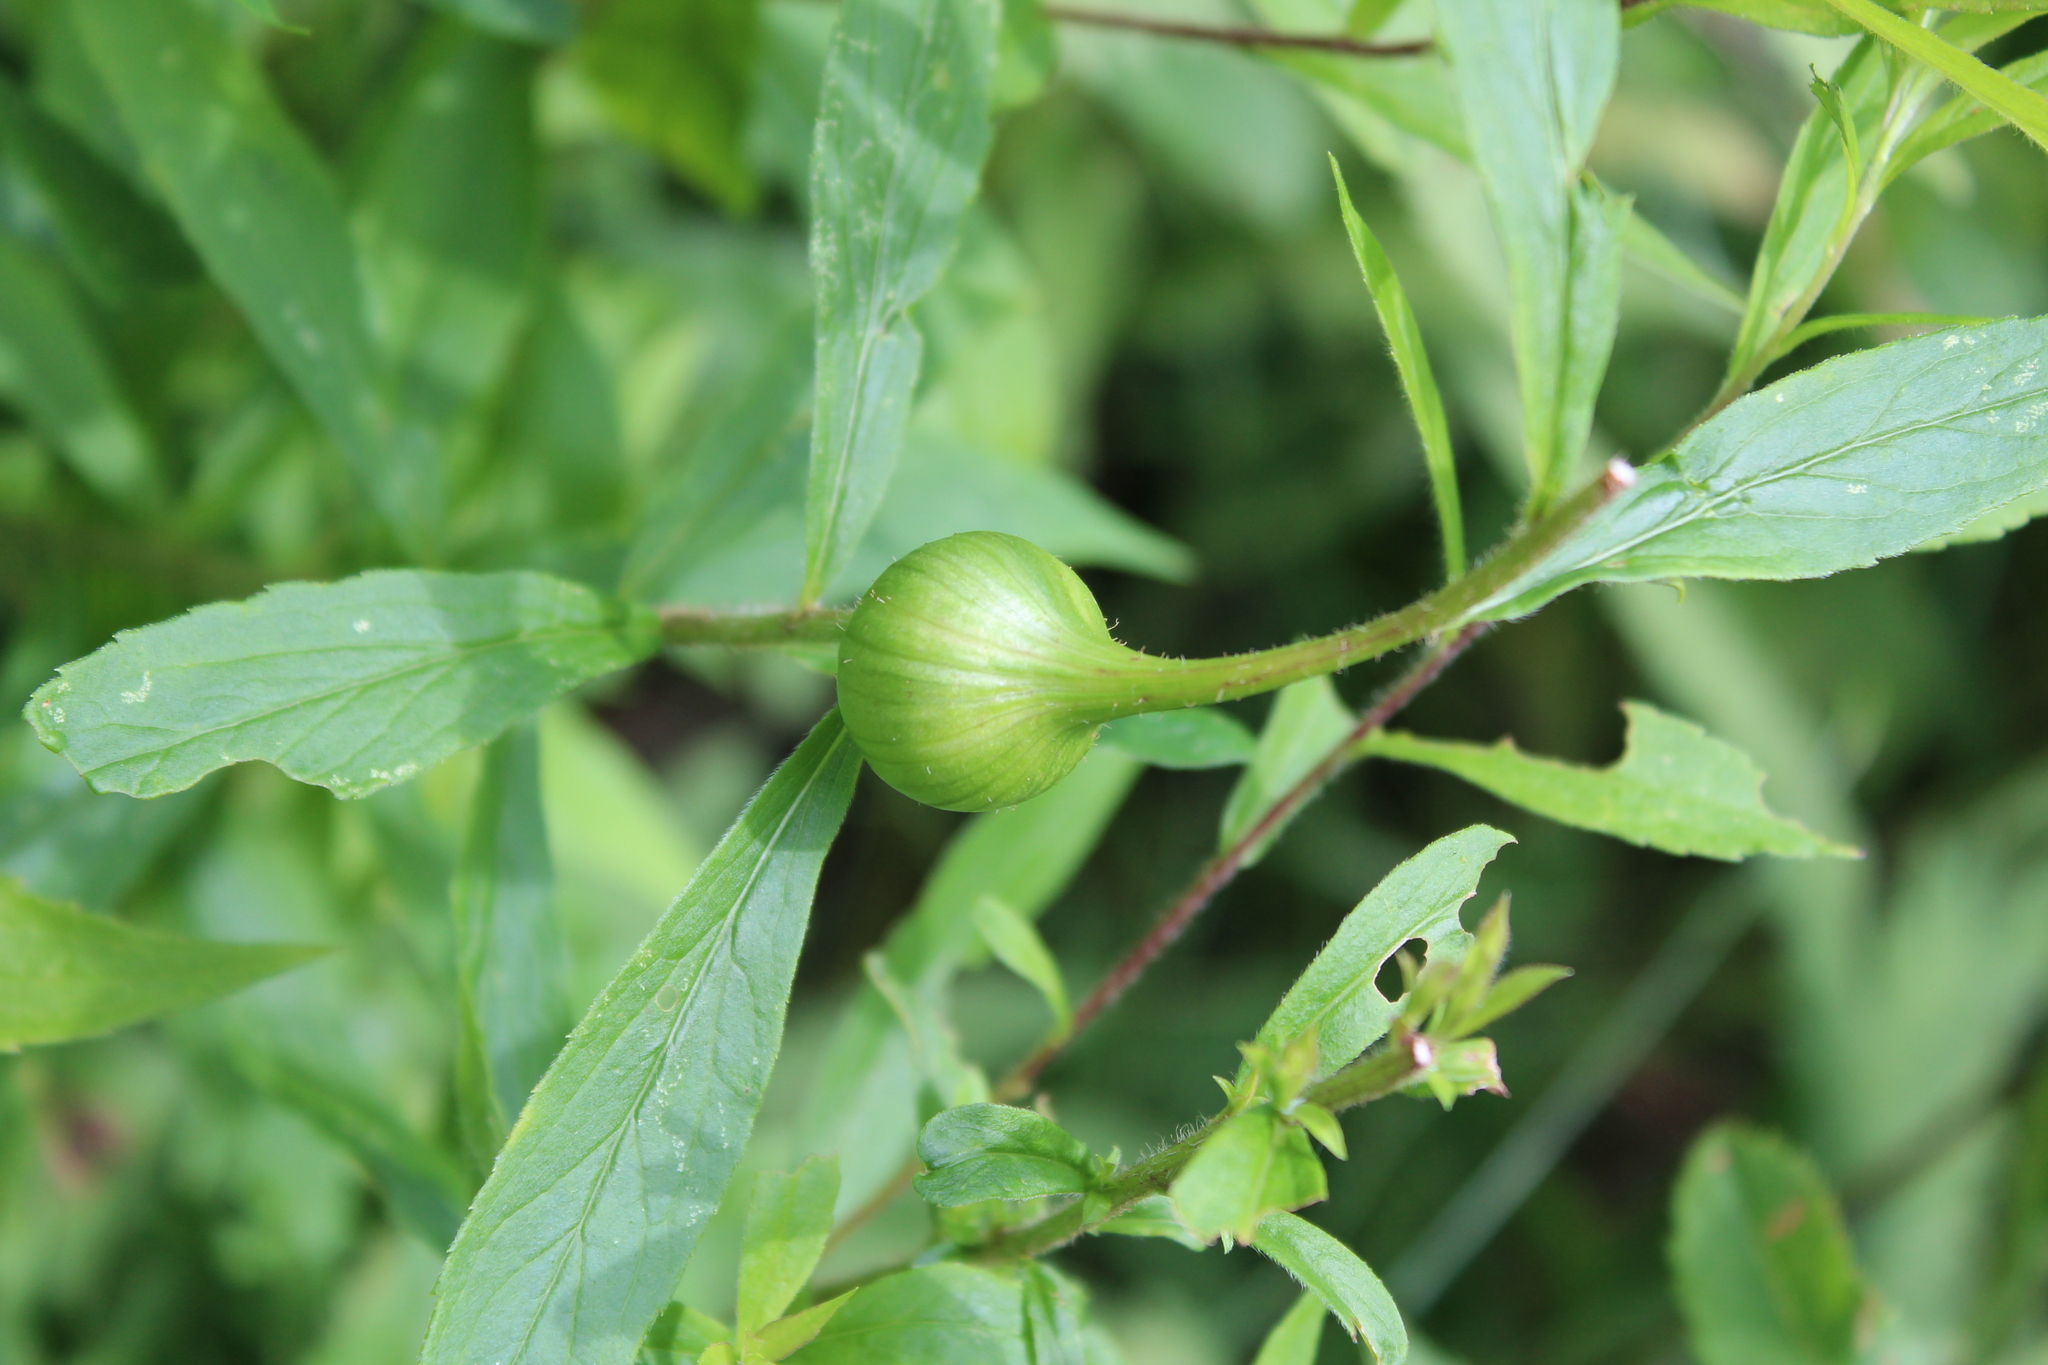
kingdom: Animalia
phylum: Arthropoda
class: Insecta
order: Diptera
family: Tephritidae
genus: Eurosta
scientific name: Eurosta solidaginis
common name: Goldenrod gall fly
